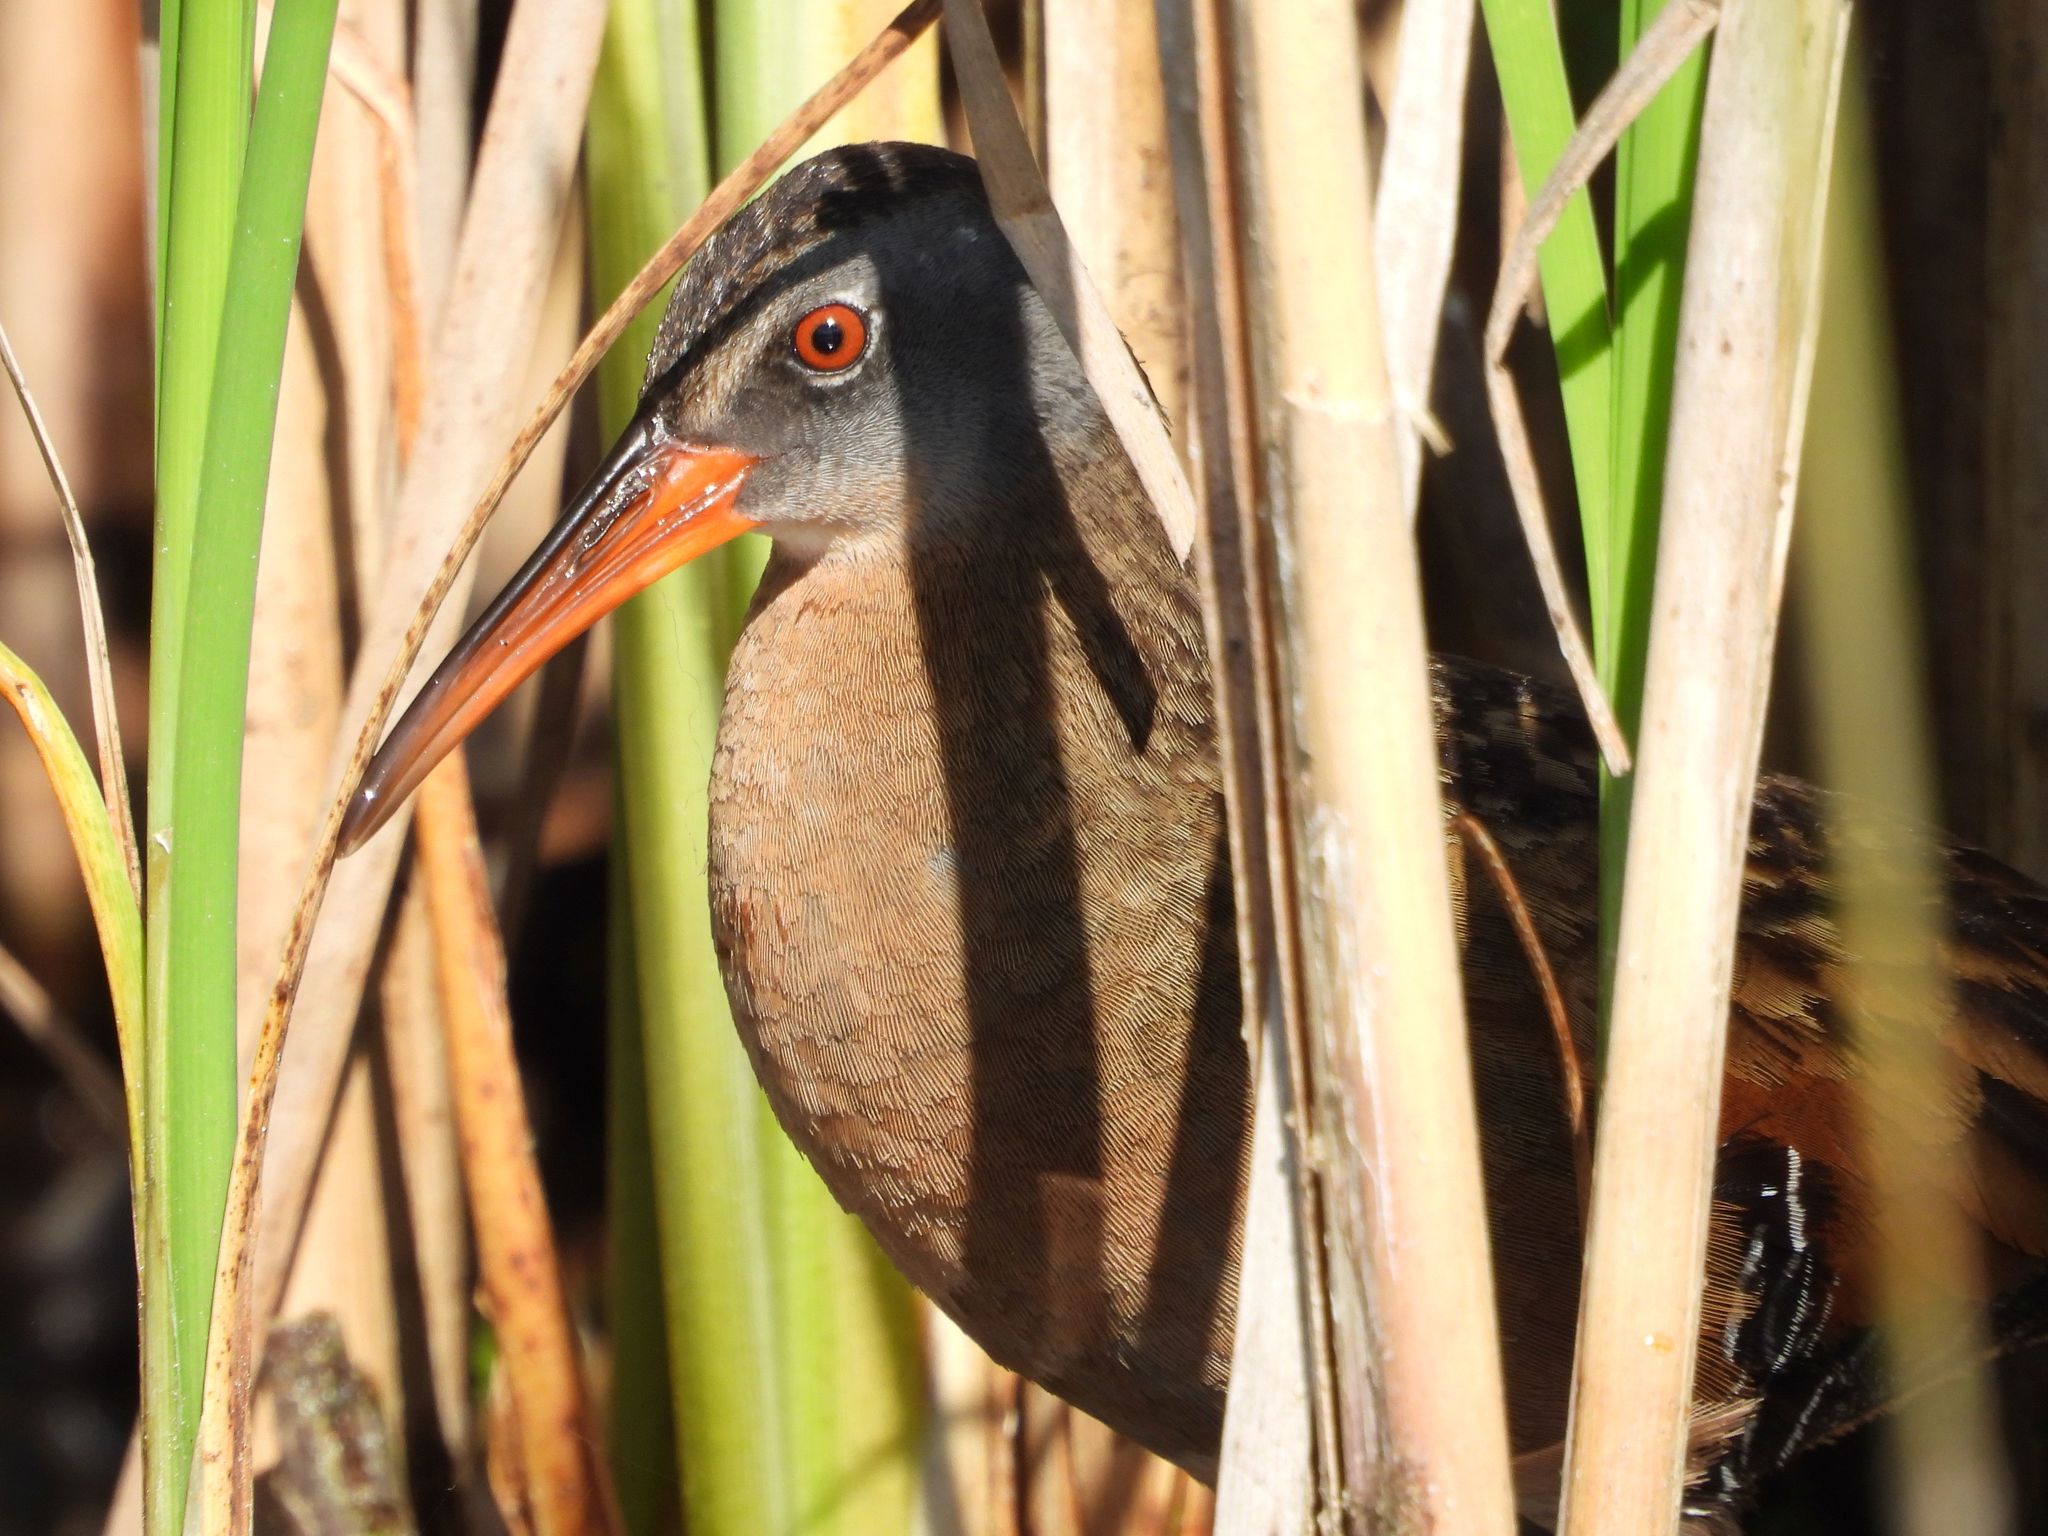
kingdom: Animalia
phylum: Chordata
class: Aves
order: Gruiformes
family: Rallidae
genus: Rallus
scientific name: Rallus limicola
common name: Virginia rail
